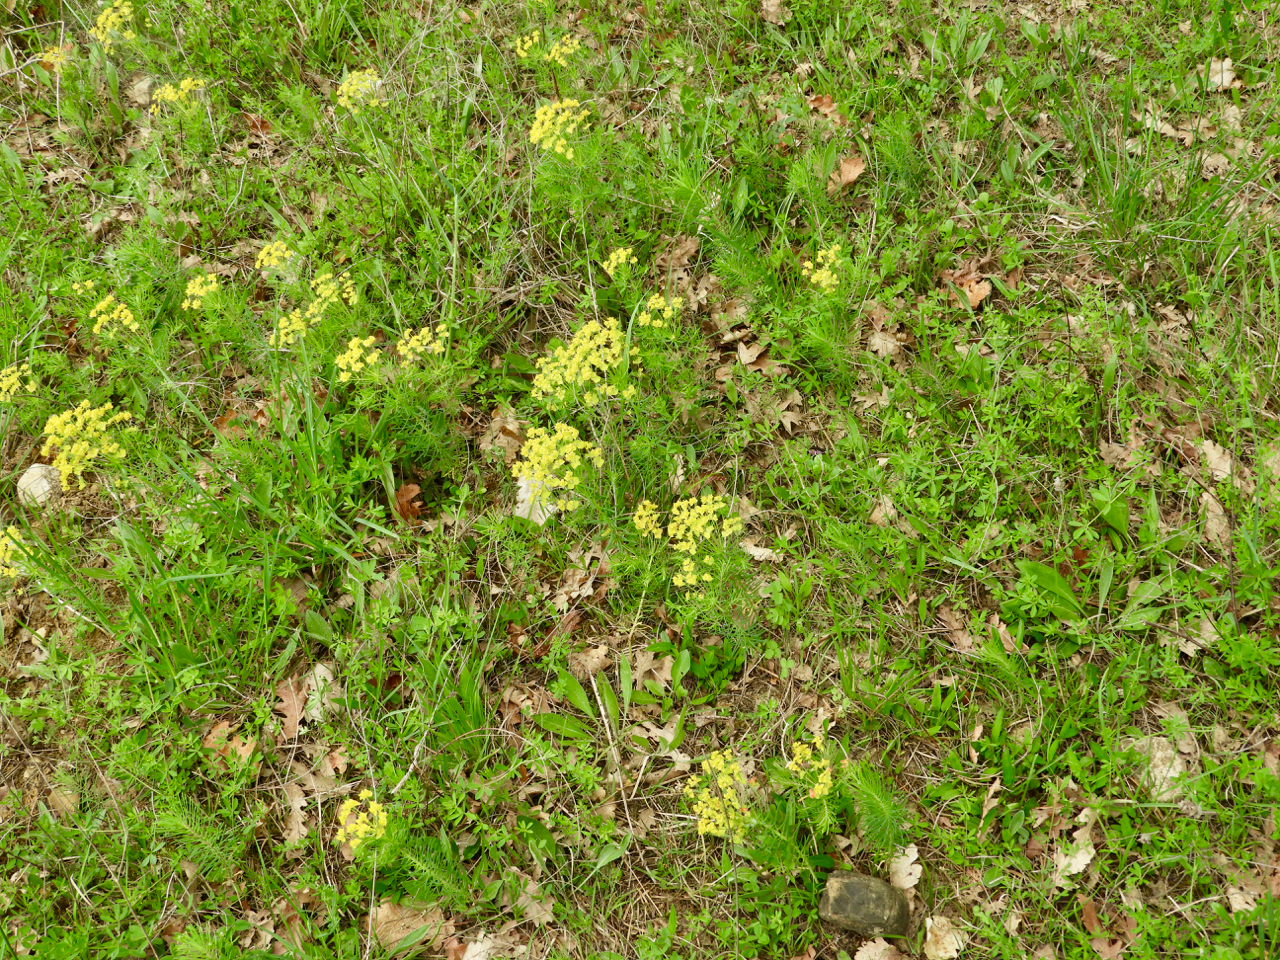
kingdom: Plantae
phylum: Tracheophyta
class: Magnoliopsida
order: Malpighiales
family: Euphorbiaceae
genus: Euphorbia
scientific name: Euphorbia cyparissias
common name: Cypress spurge
